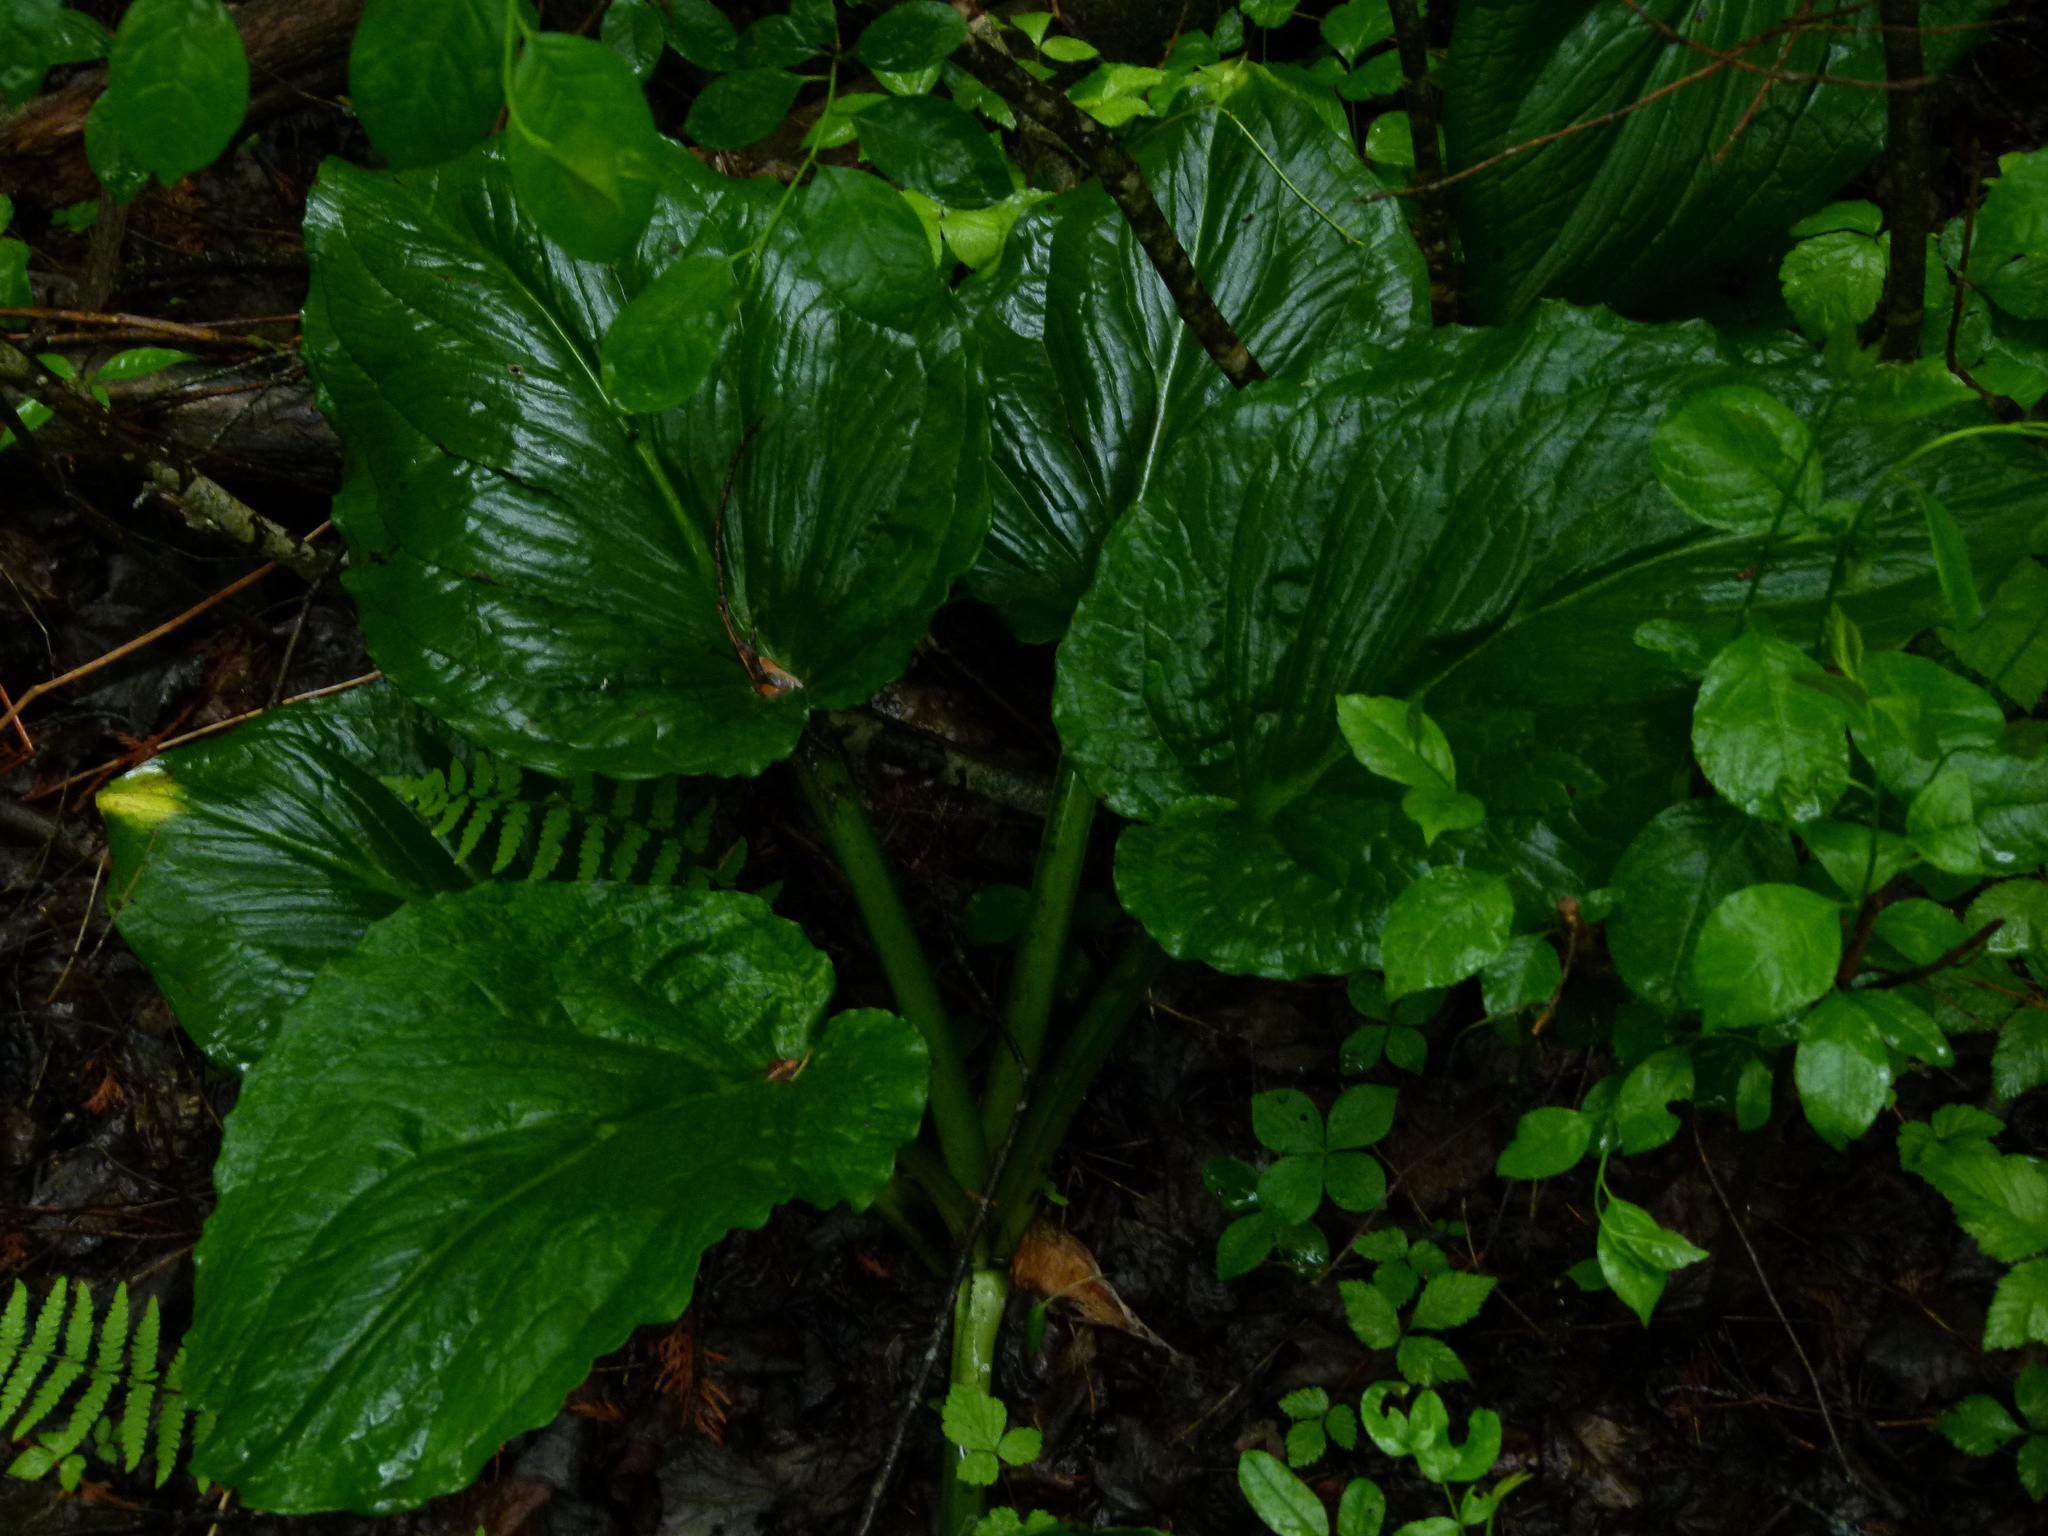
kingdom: Plantae
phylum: Tracheophyta
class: Liliopsida
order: Alismatales
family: Araceae
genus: Symplocarpus
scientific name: Symplocarpus foetidus
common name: Eastern skunk cabbage
